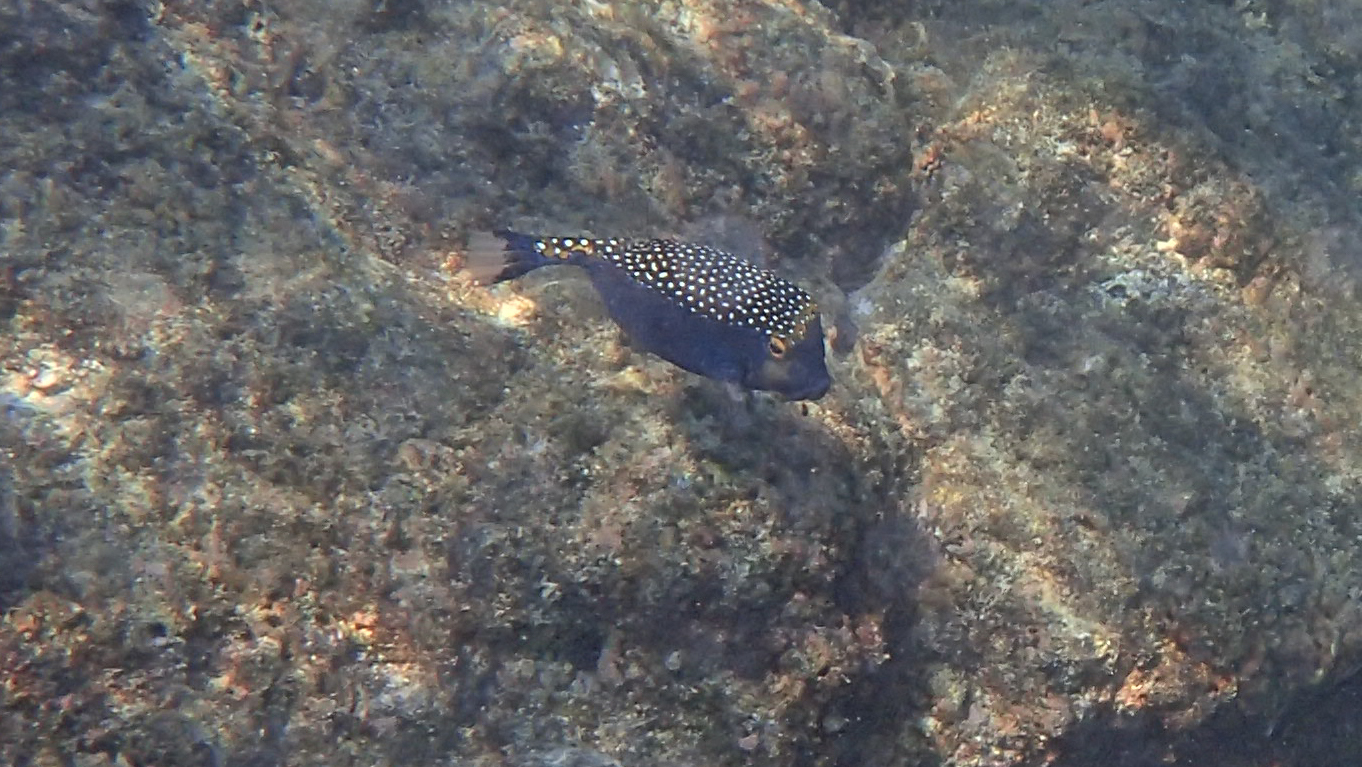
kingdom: Animalia
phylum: Chordata
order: Tetraodontiformes
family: Ostraciidae
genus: Ostracion
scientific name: Ostracion meleagris
